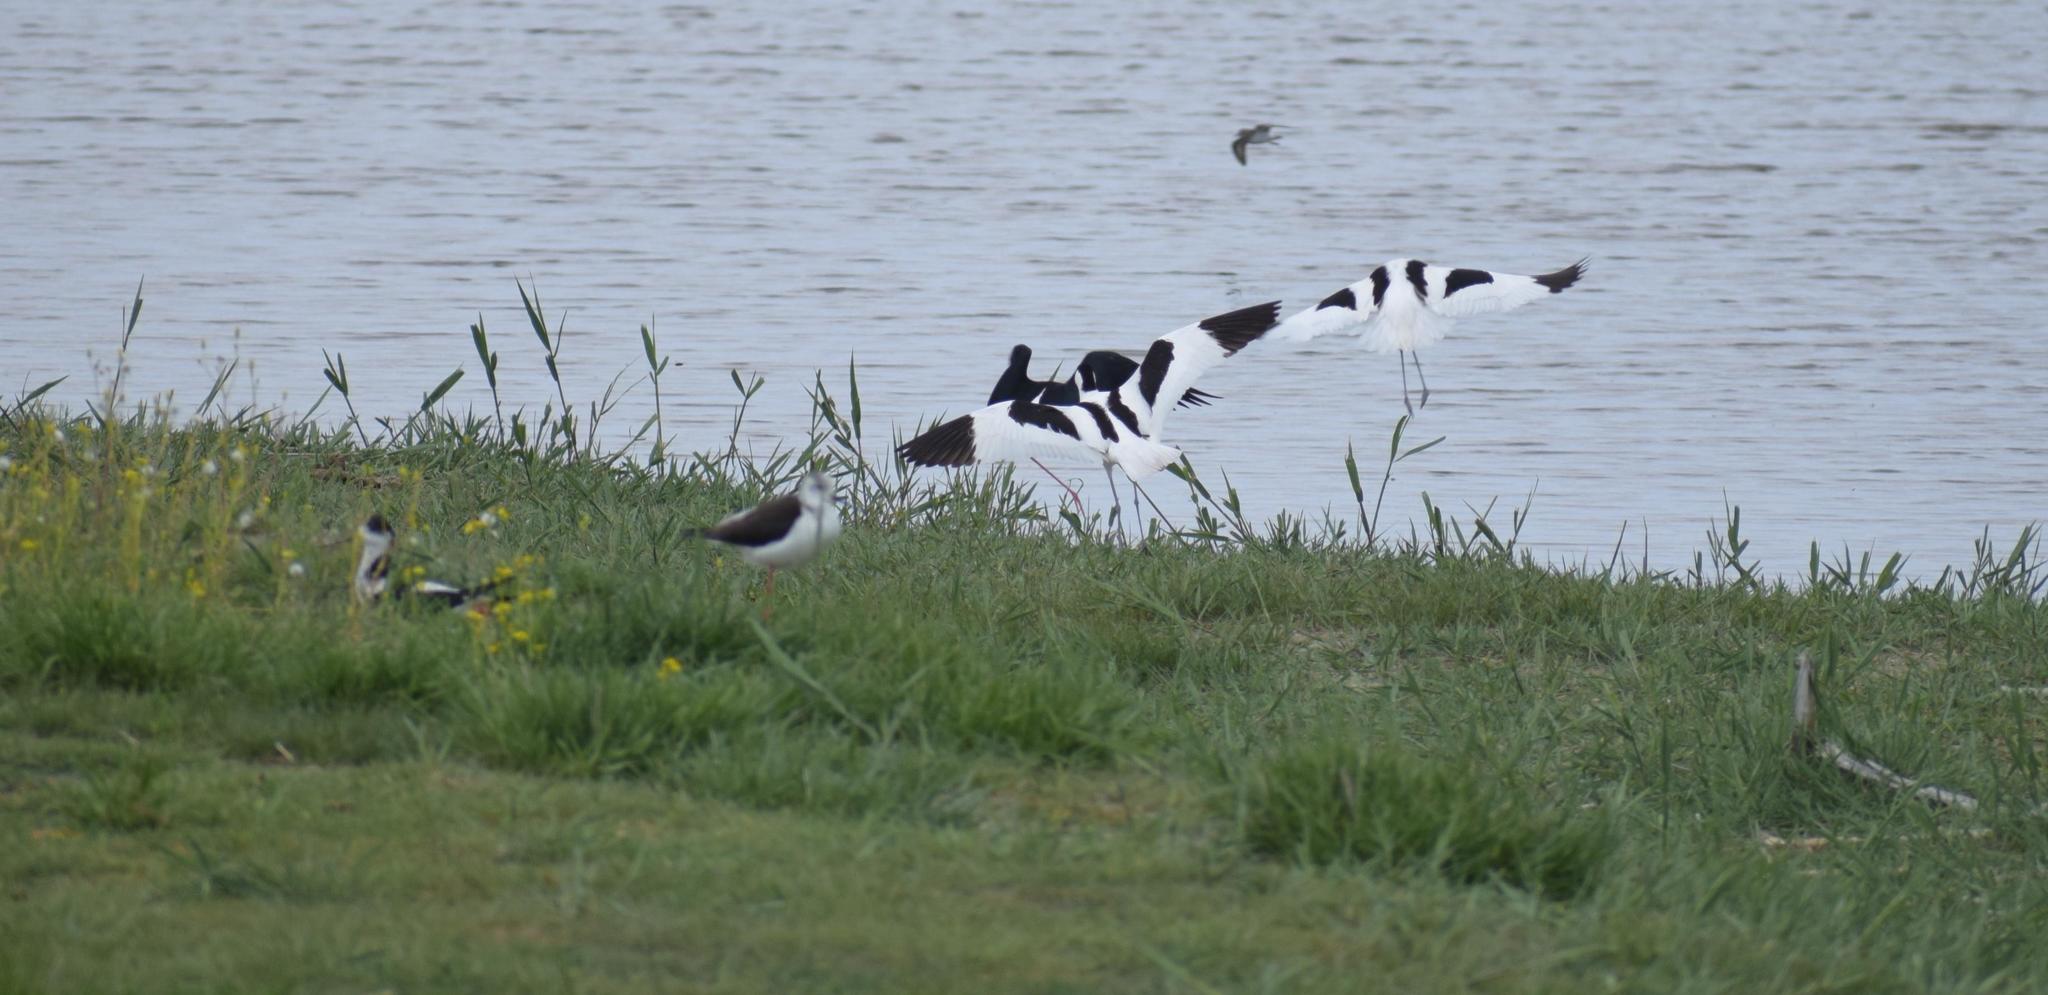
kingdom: Animalia
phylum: Chordata
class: Aves
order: Charadriiformes
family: Recurvirostridae
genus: Recurvirostra
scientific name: Recurvirostra avosetta
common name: Pied avocet
